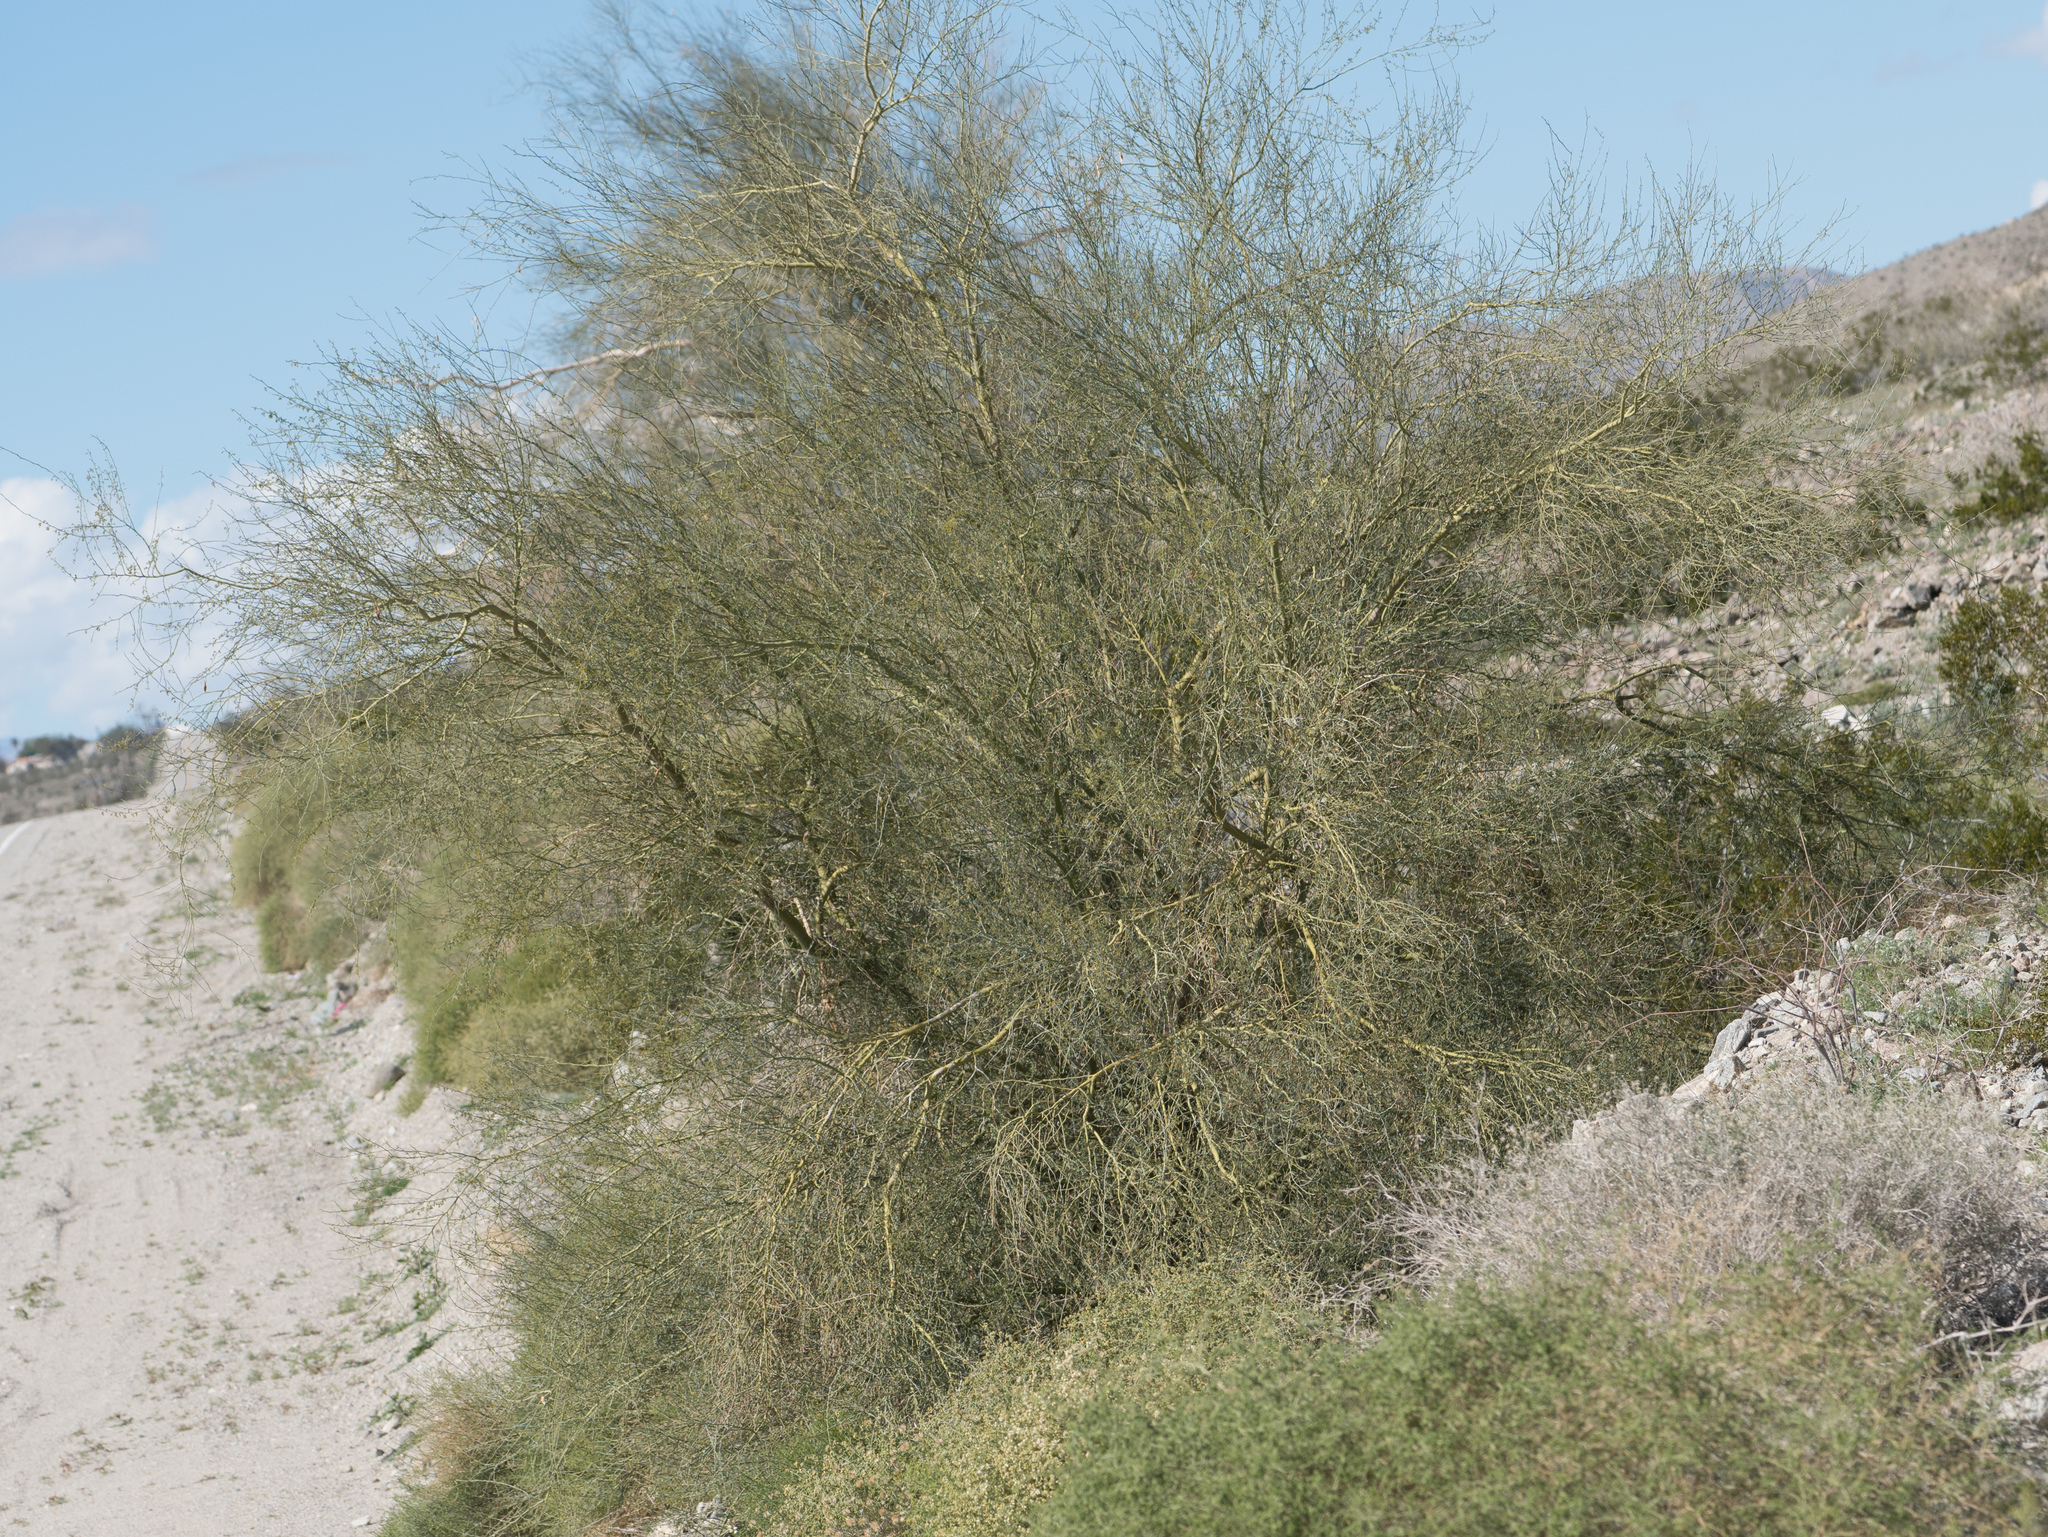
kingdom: Plantae
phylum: Tracheophyta
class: Magnoliopsida
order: Fabales
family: Fabaceae
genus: Parkinsonia
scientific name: Parkinsonia florida
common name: Blue paloverde
